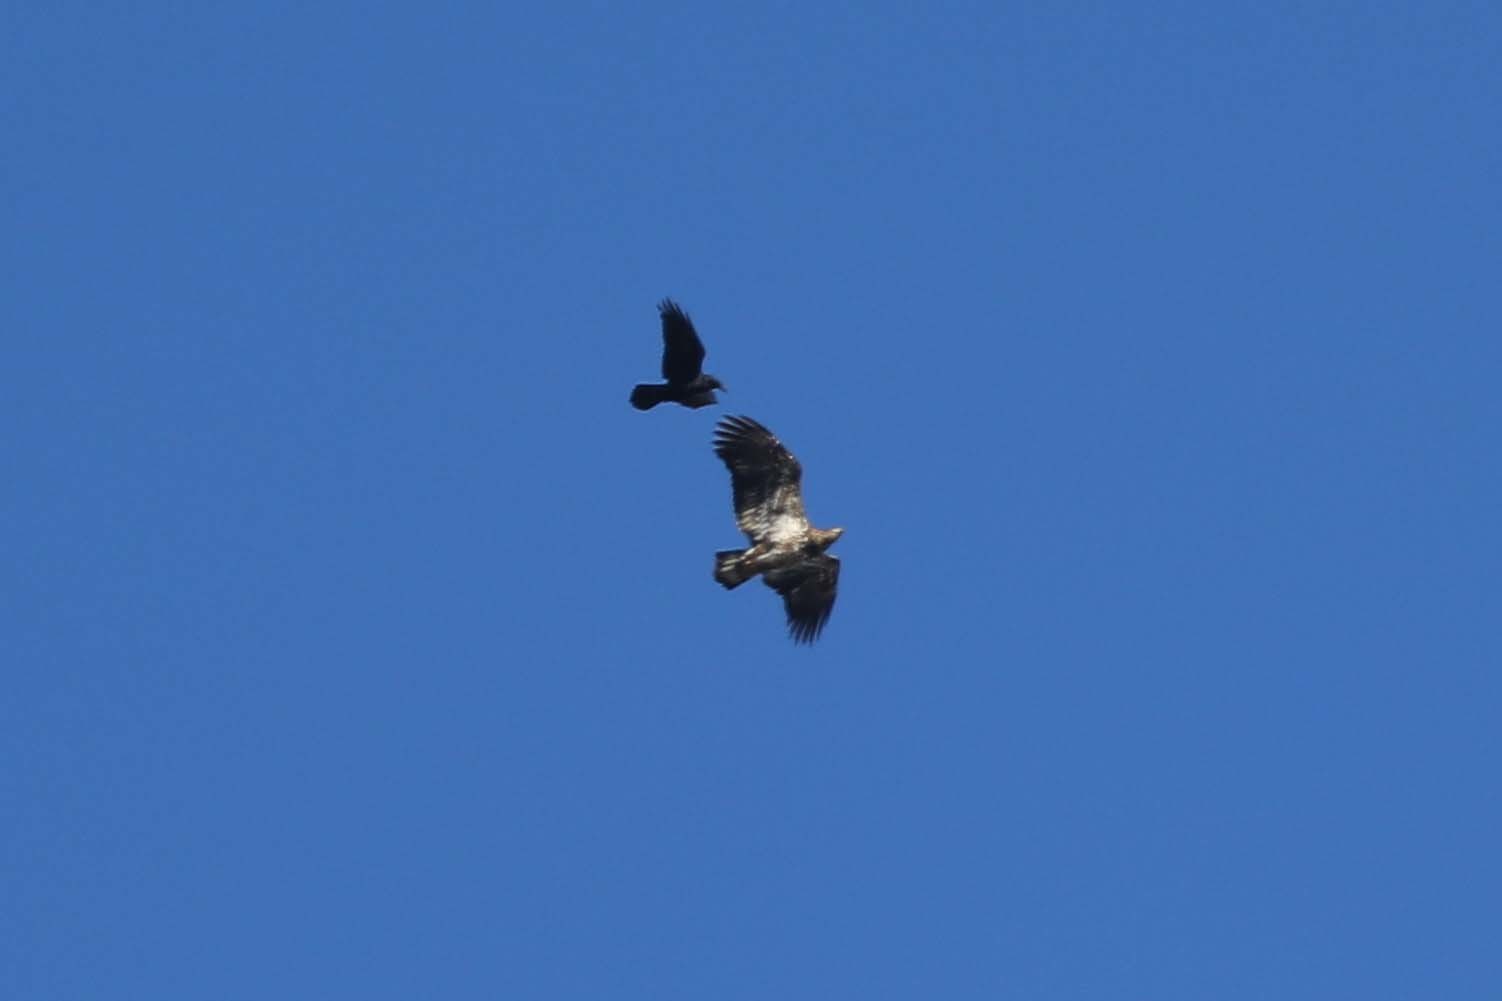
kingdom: Animalia
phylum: Chordata
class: Aves
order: Passeriformes
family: Corvidae
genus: Corvus
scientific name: Corvus corax
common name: Common raven
